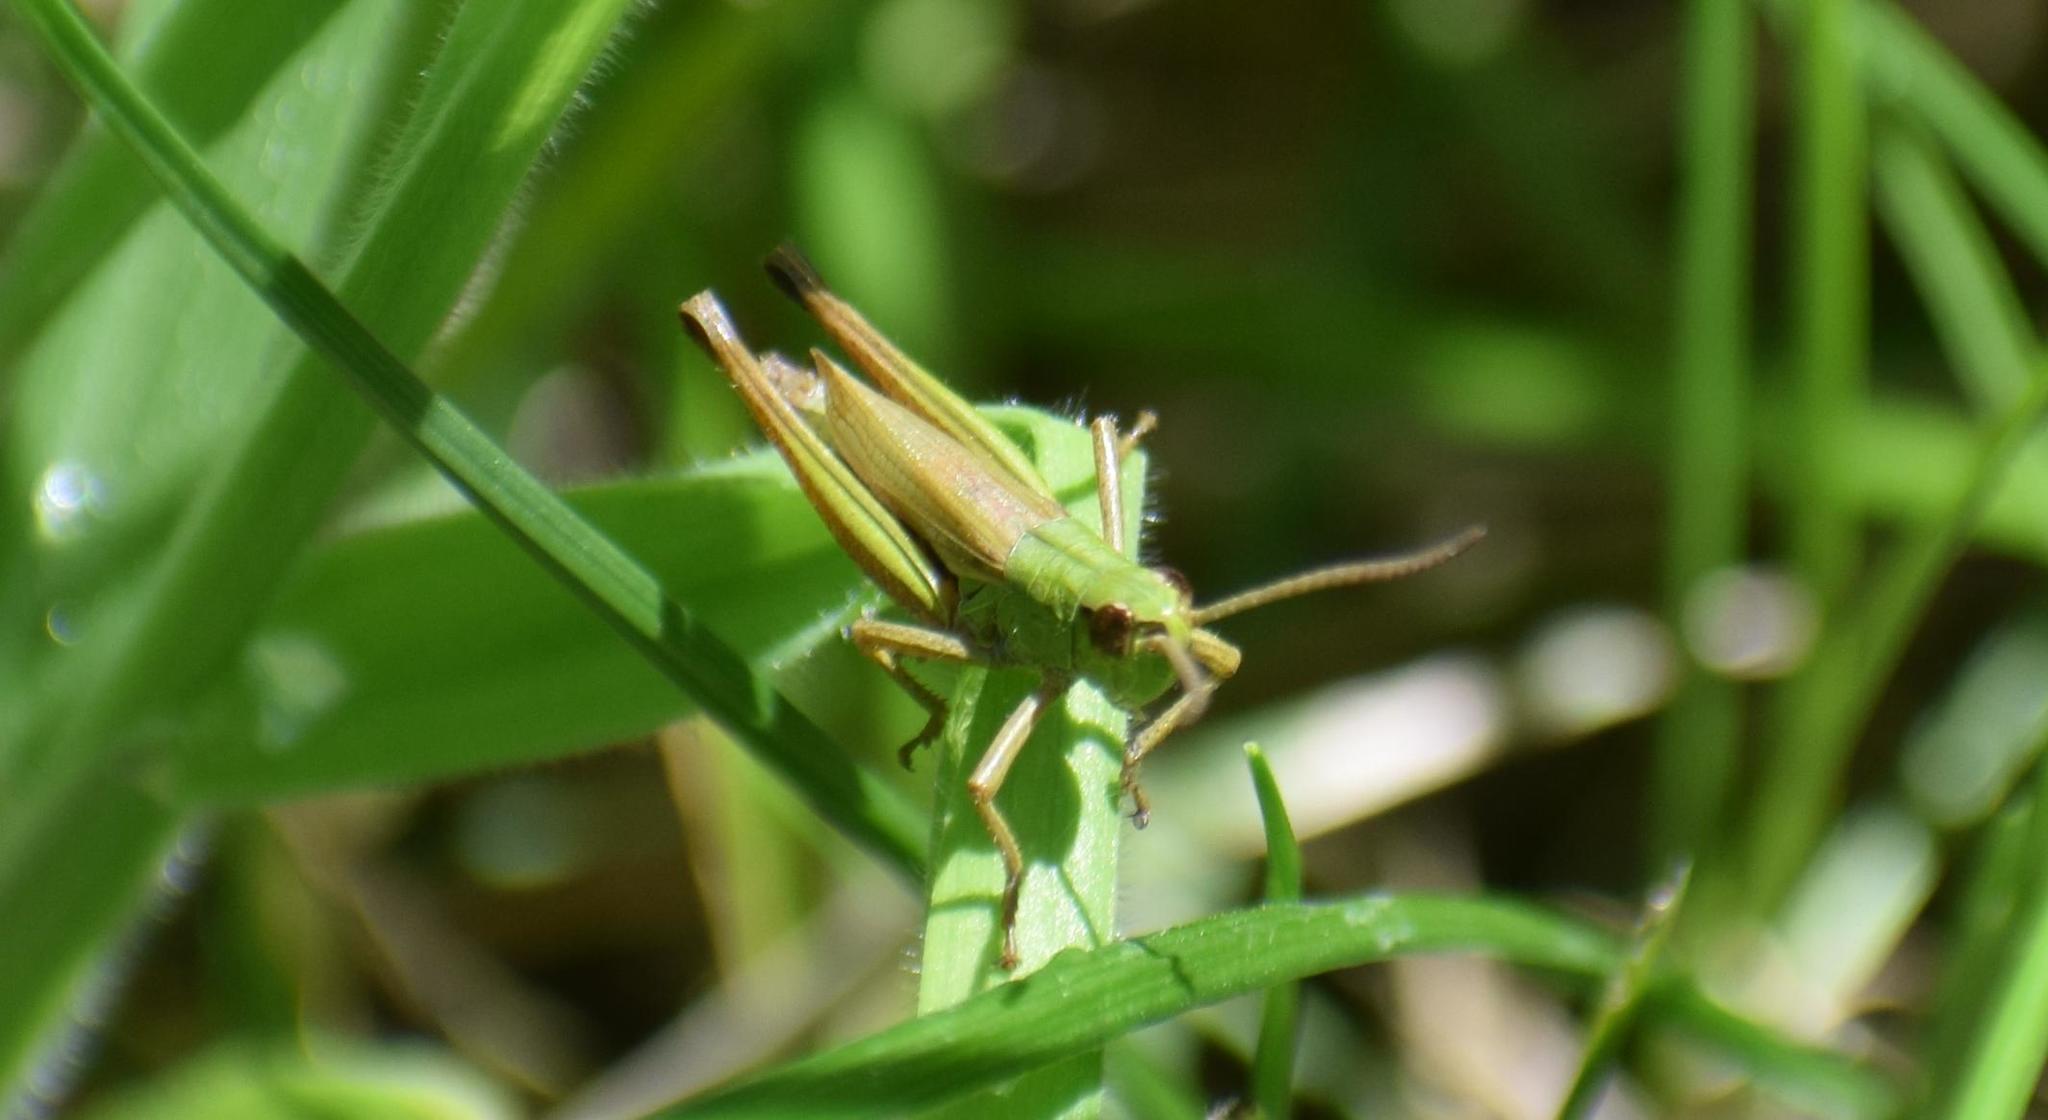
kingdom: Animalia
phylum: Arthropoda
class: Insecta
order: Orthoptera
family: Acrididae
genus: Pseudochorthippus
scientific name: Pseudochorthippus parallelus
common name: Meadow grasshopper
